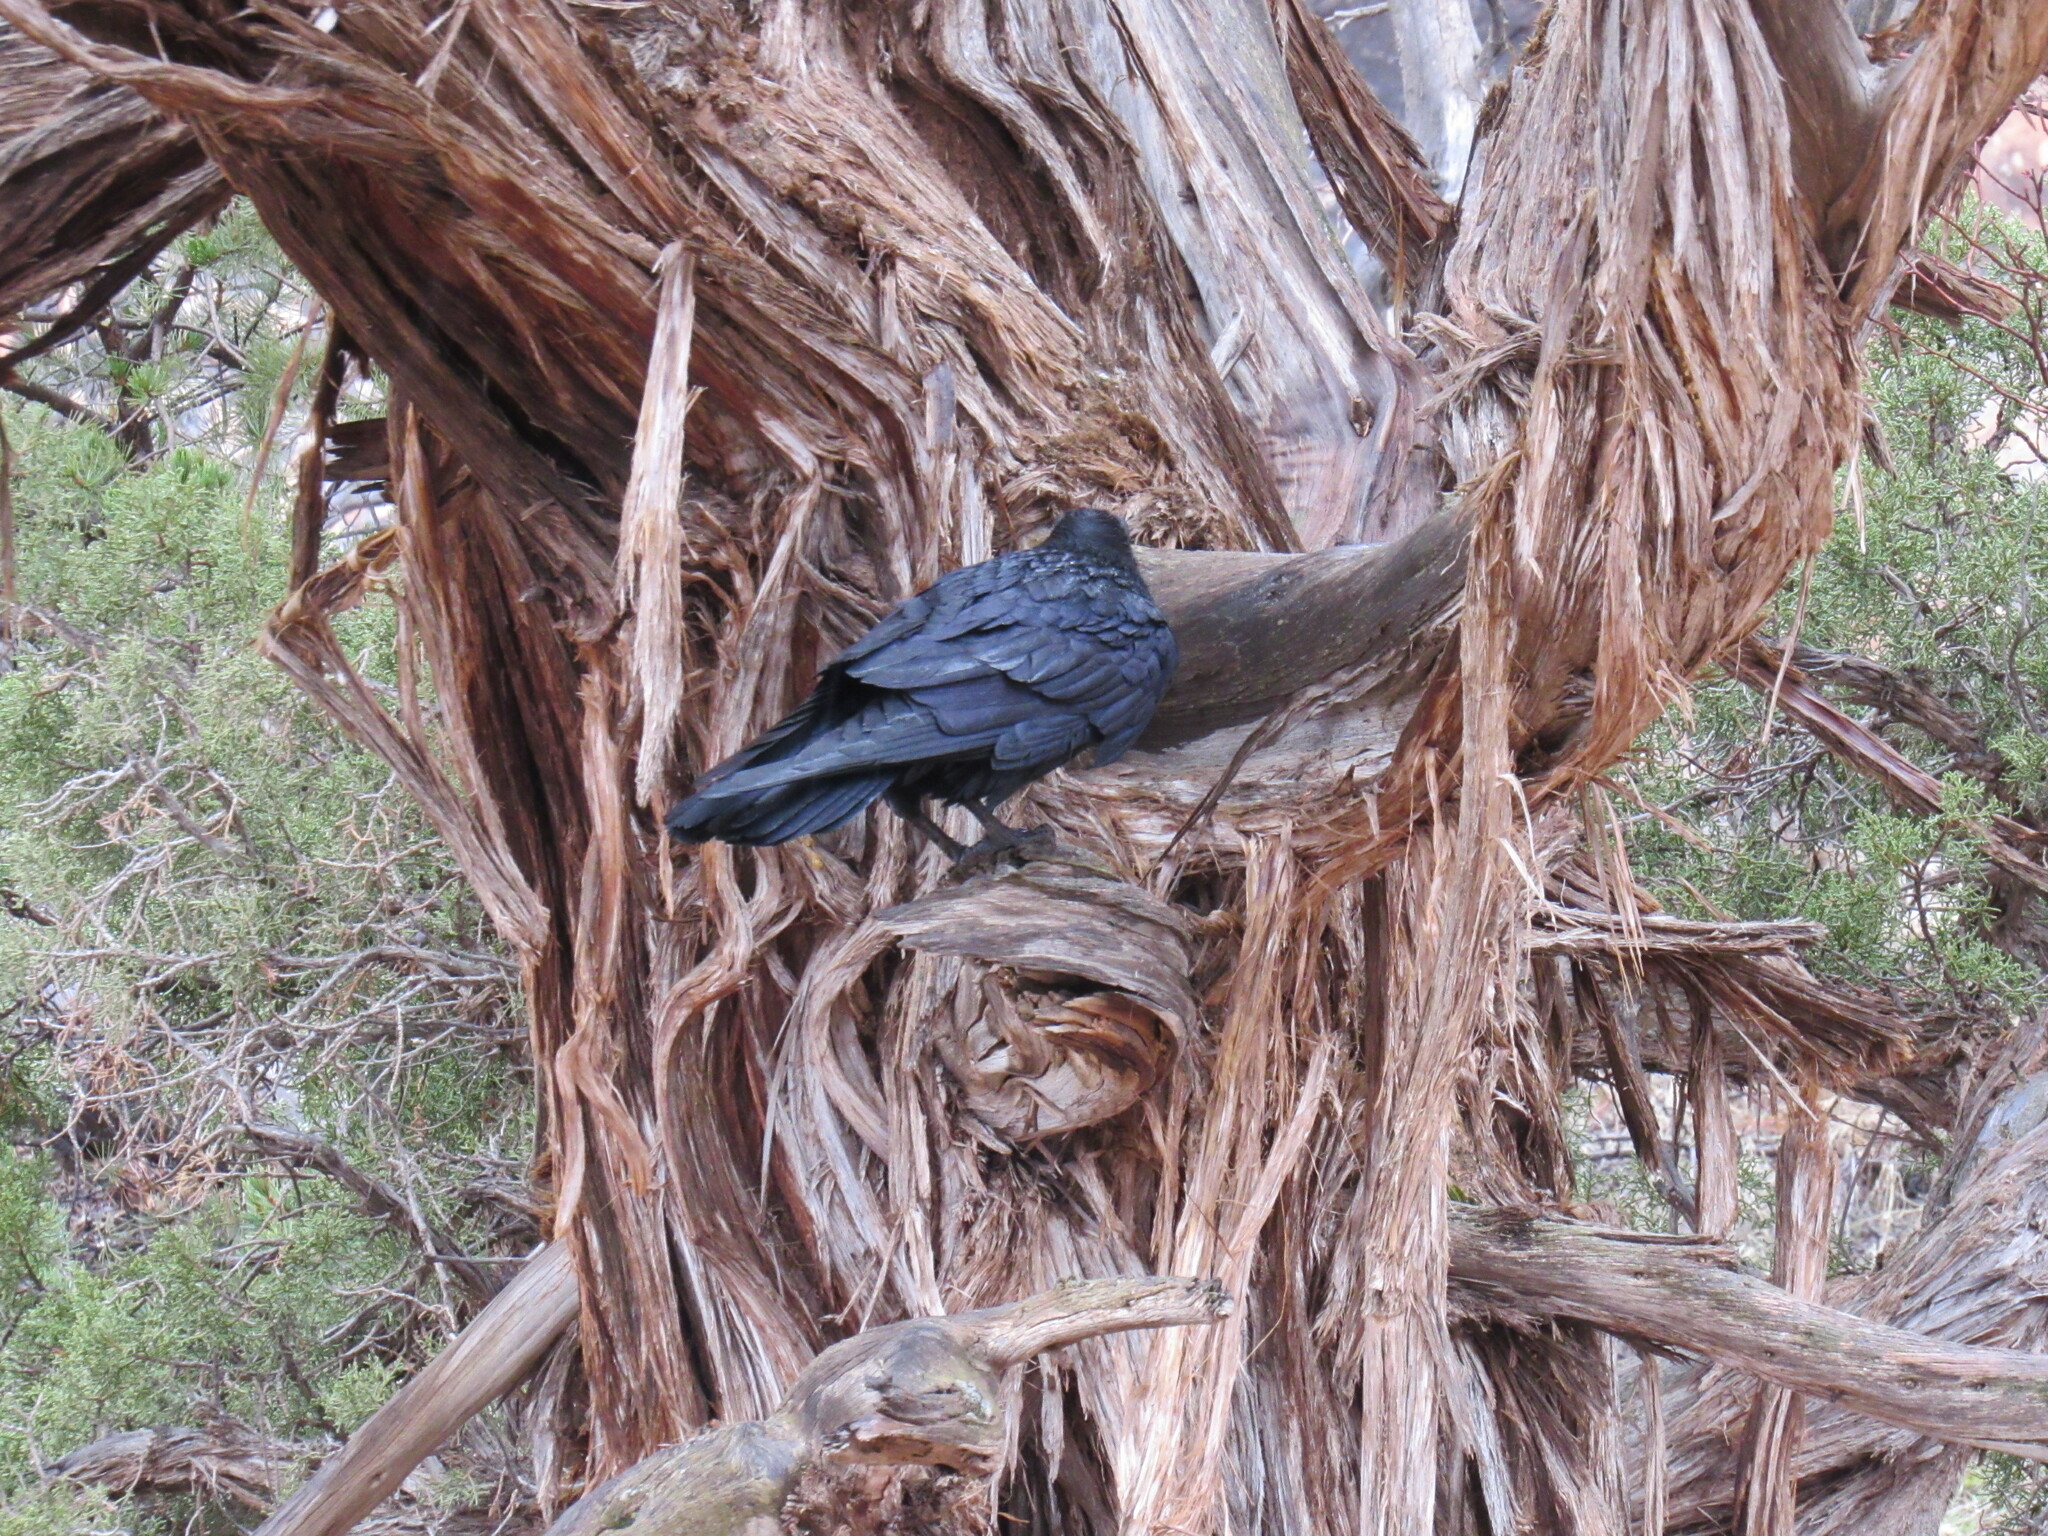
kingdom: Animalia
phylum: Chordata
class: Aves
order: Passeriformes
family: Corvidae
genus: Corvus
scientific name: Corvus corax
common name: Common raven
